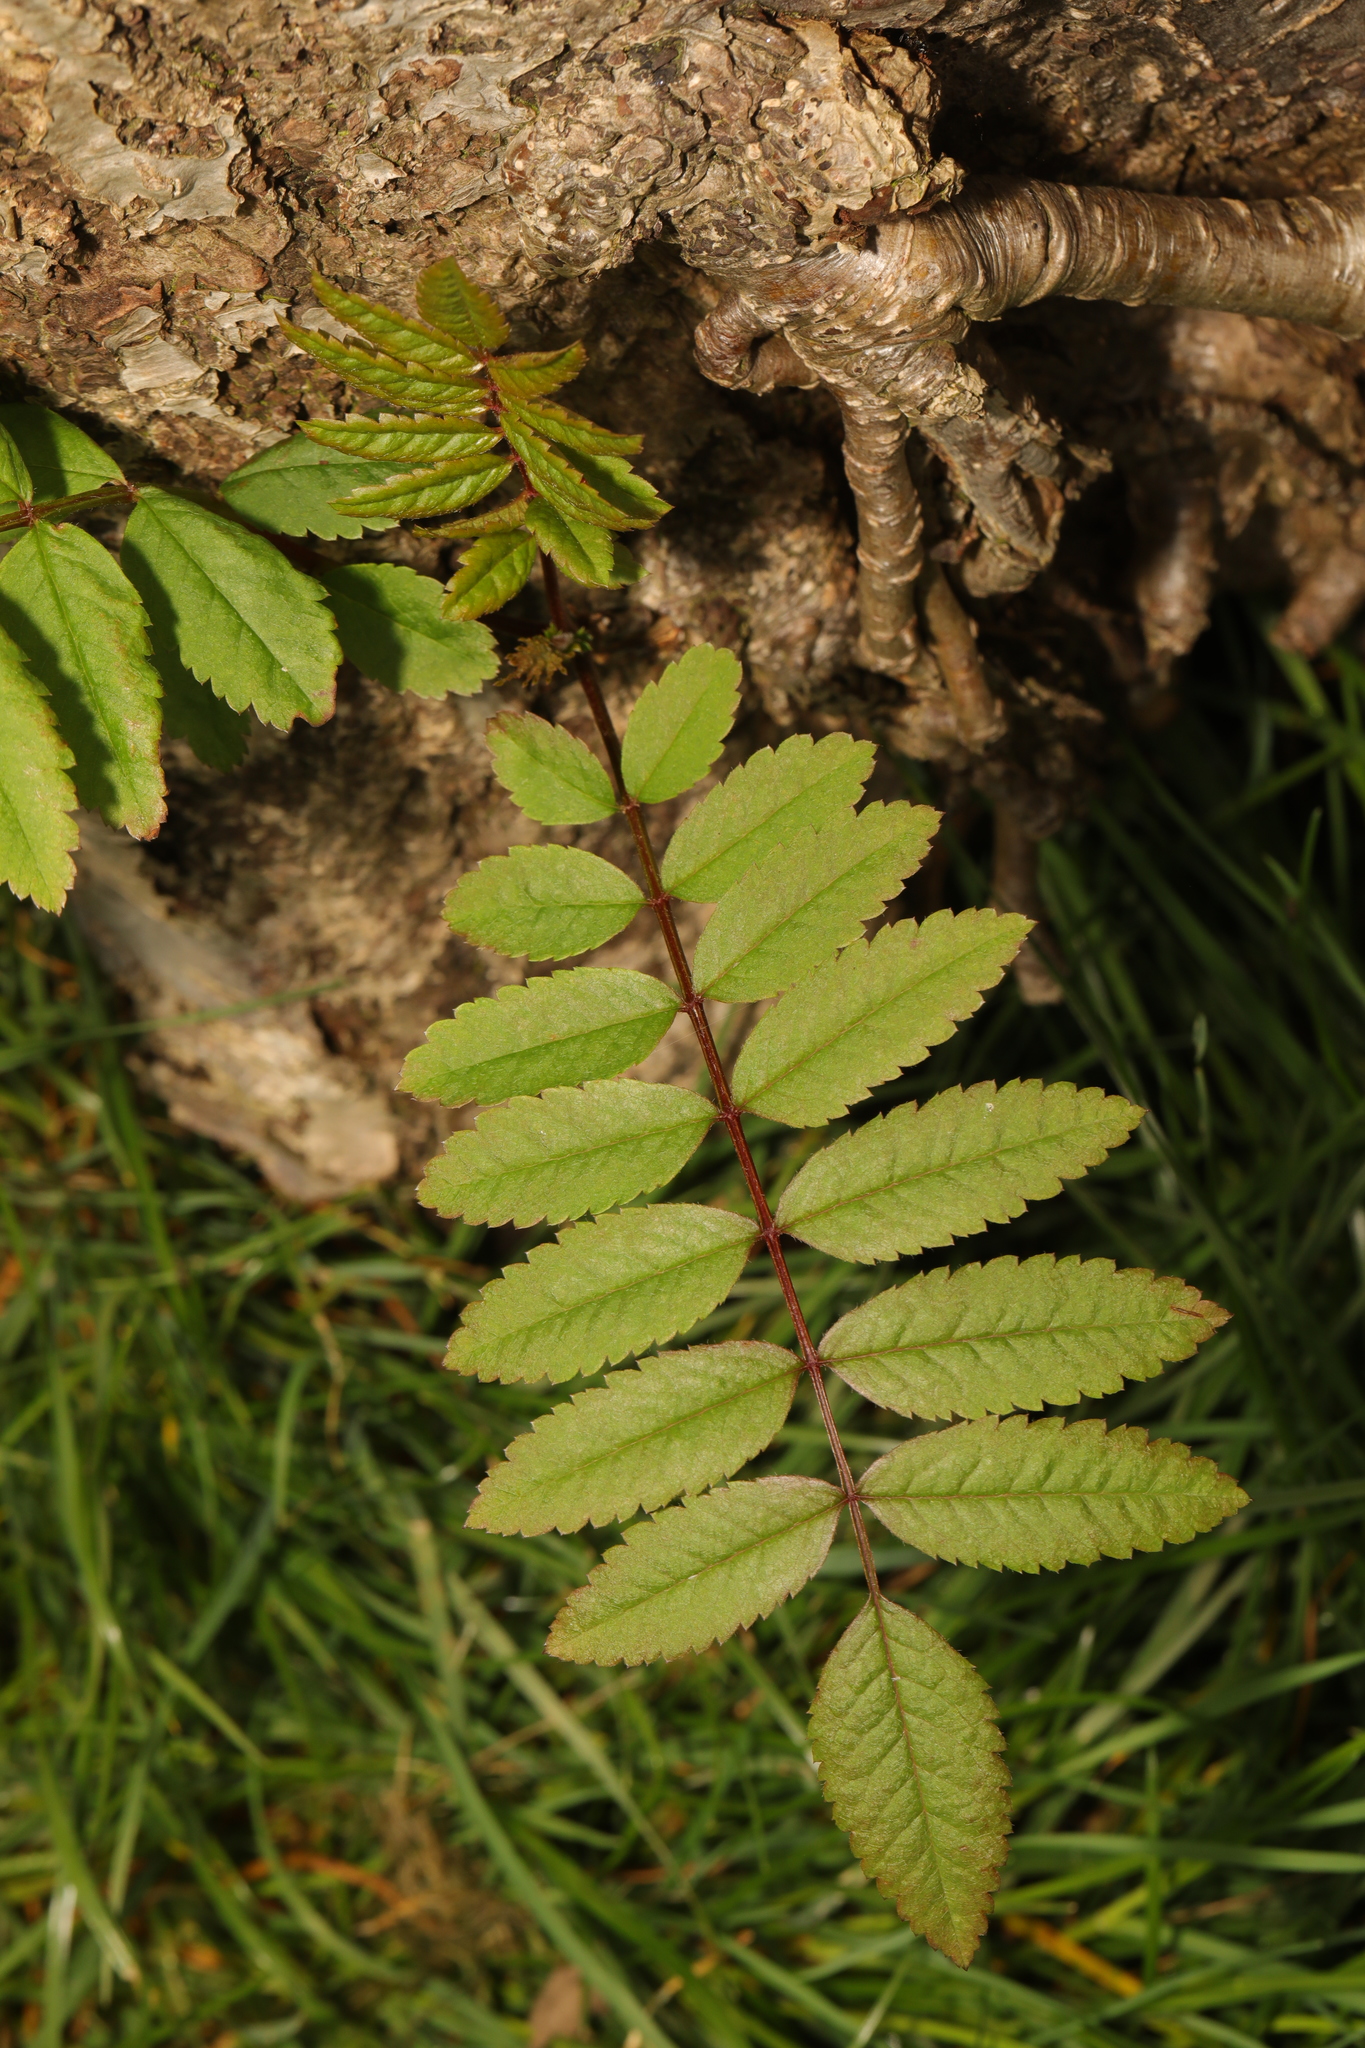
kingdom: Plantae
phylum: Tracheophyta
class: Magnoliopsida
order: Rosales
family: Rosaceae
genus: Sorbus
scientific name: Sorbus aucuparia
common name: Rowan
